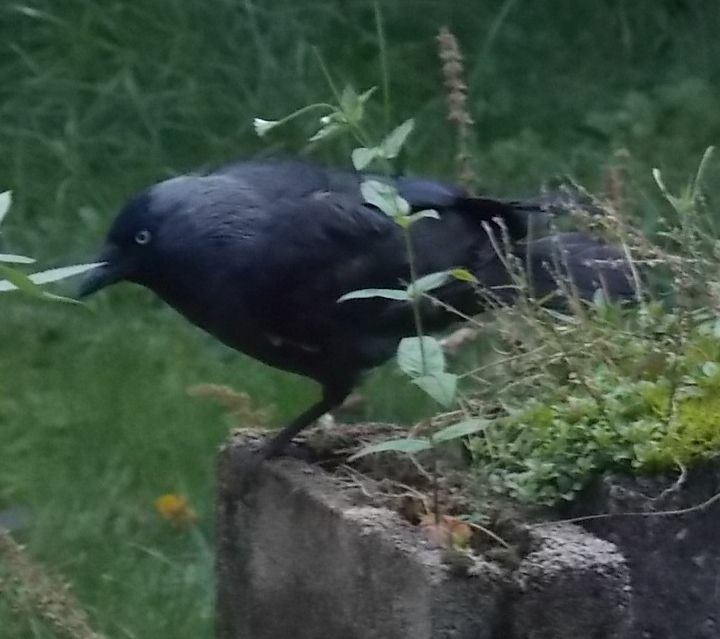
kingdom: Animalia
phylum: Chordata
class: Aves
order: Passeriformes
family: Corvidae
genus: Coloeus
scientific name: Coloeus monedula
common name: Western jackdaw
